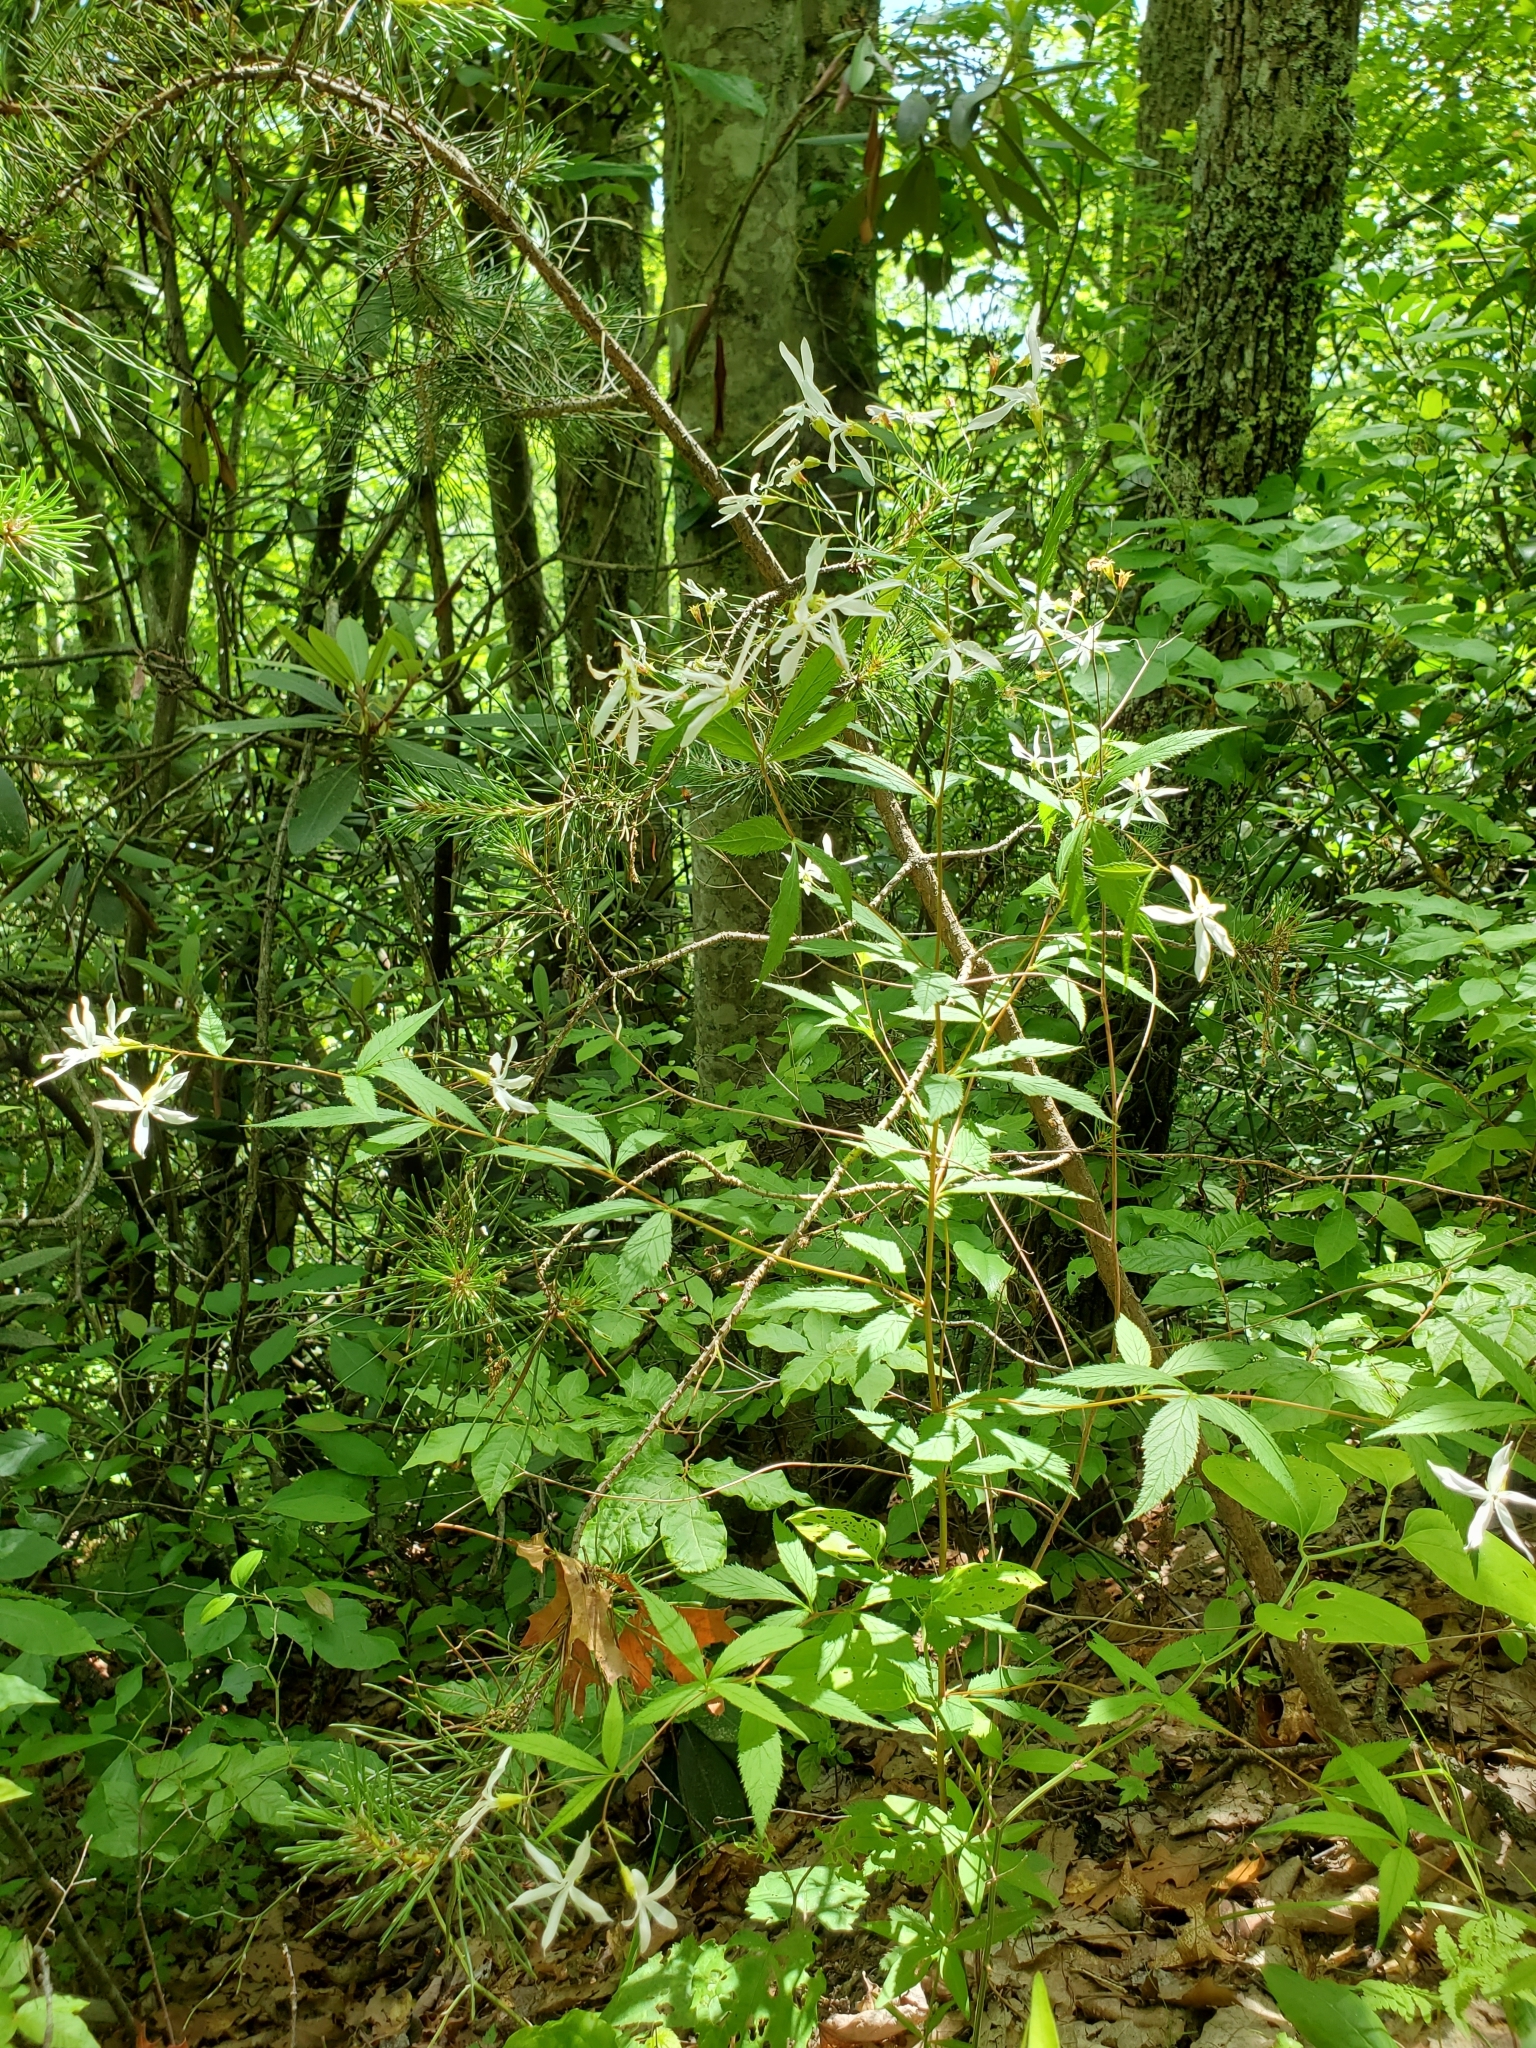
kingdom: Plantae
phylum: Tracheophyta
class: Magnoliopsida
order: Rosales
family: Rosaceae
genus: Gillenia
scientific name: Gillenia trifoliata
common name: Bowman's-root
